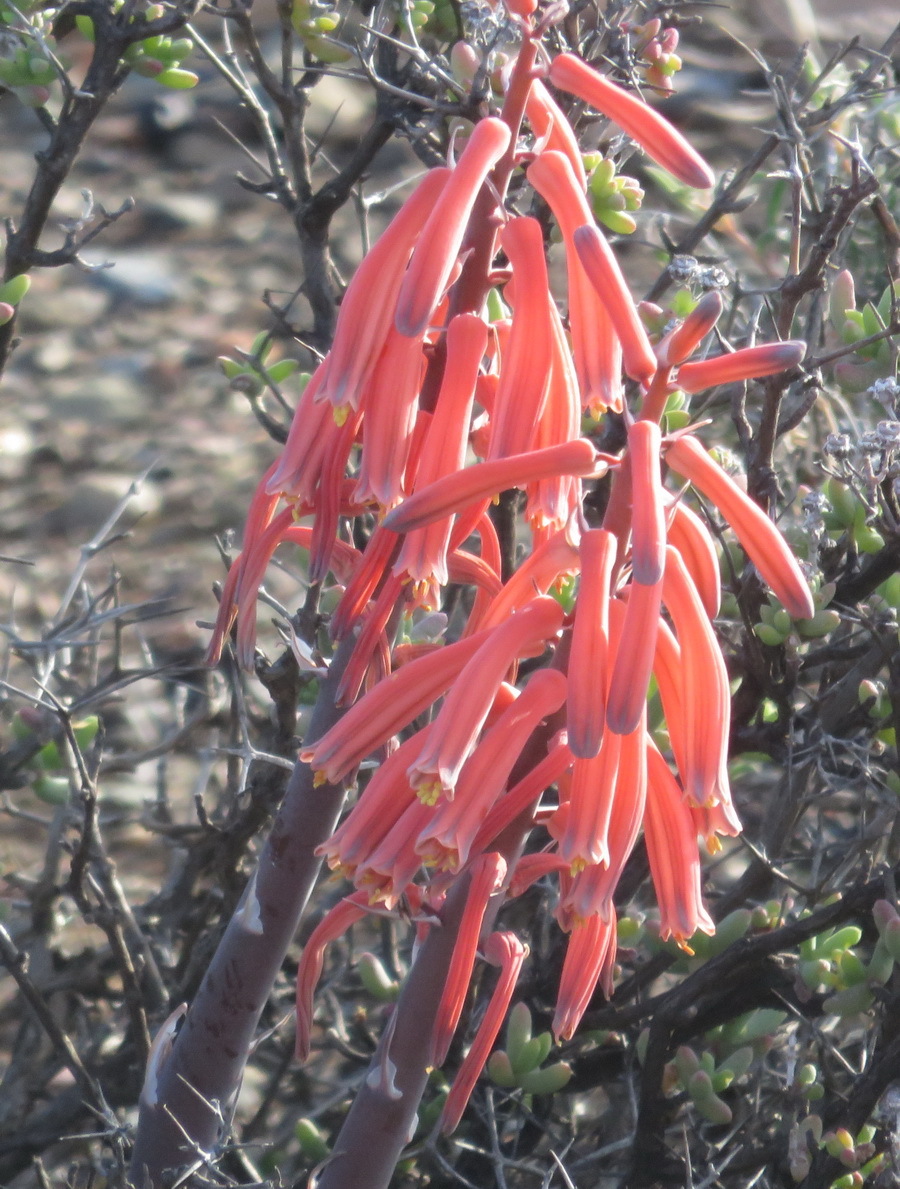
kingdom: Plantae
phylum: Tracheophyta
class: Liliopsida
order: Asparagales
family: Asphodelaceae
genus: Gonialoe
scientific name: Gonialoe variegata
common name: Aloe variegata
